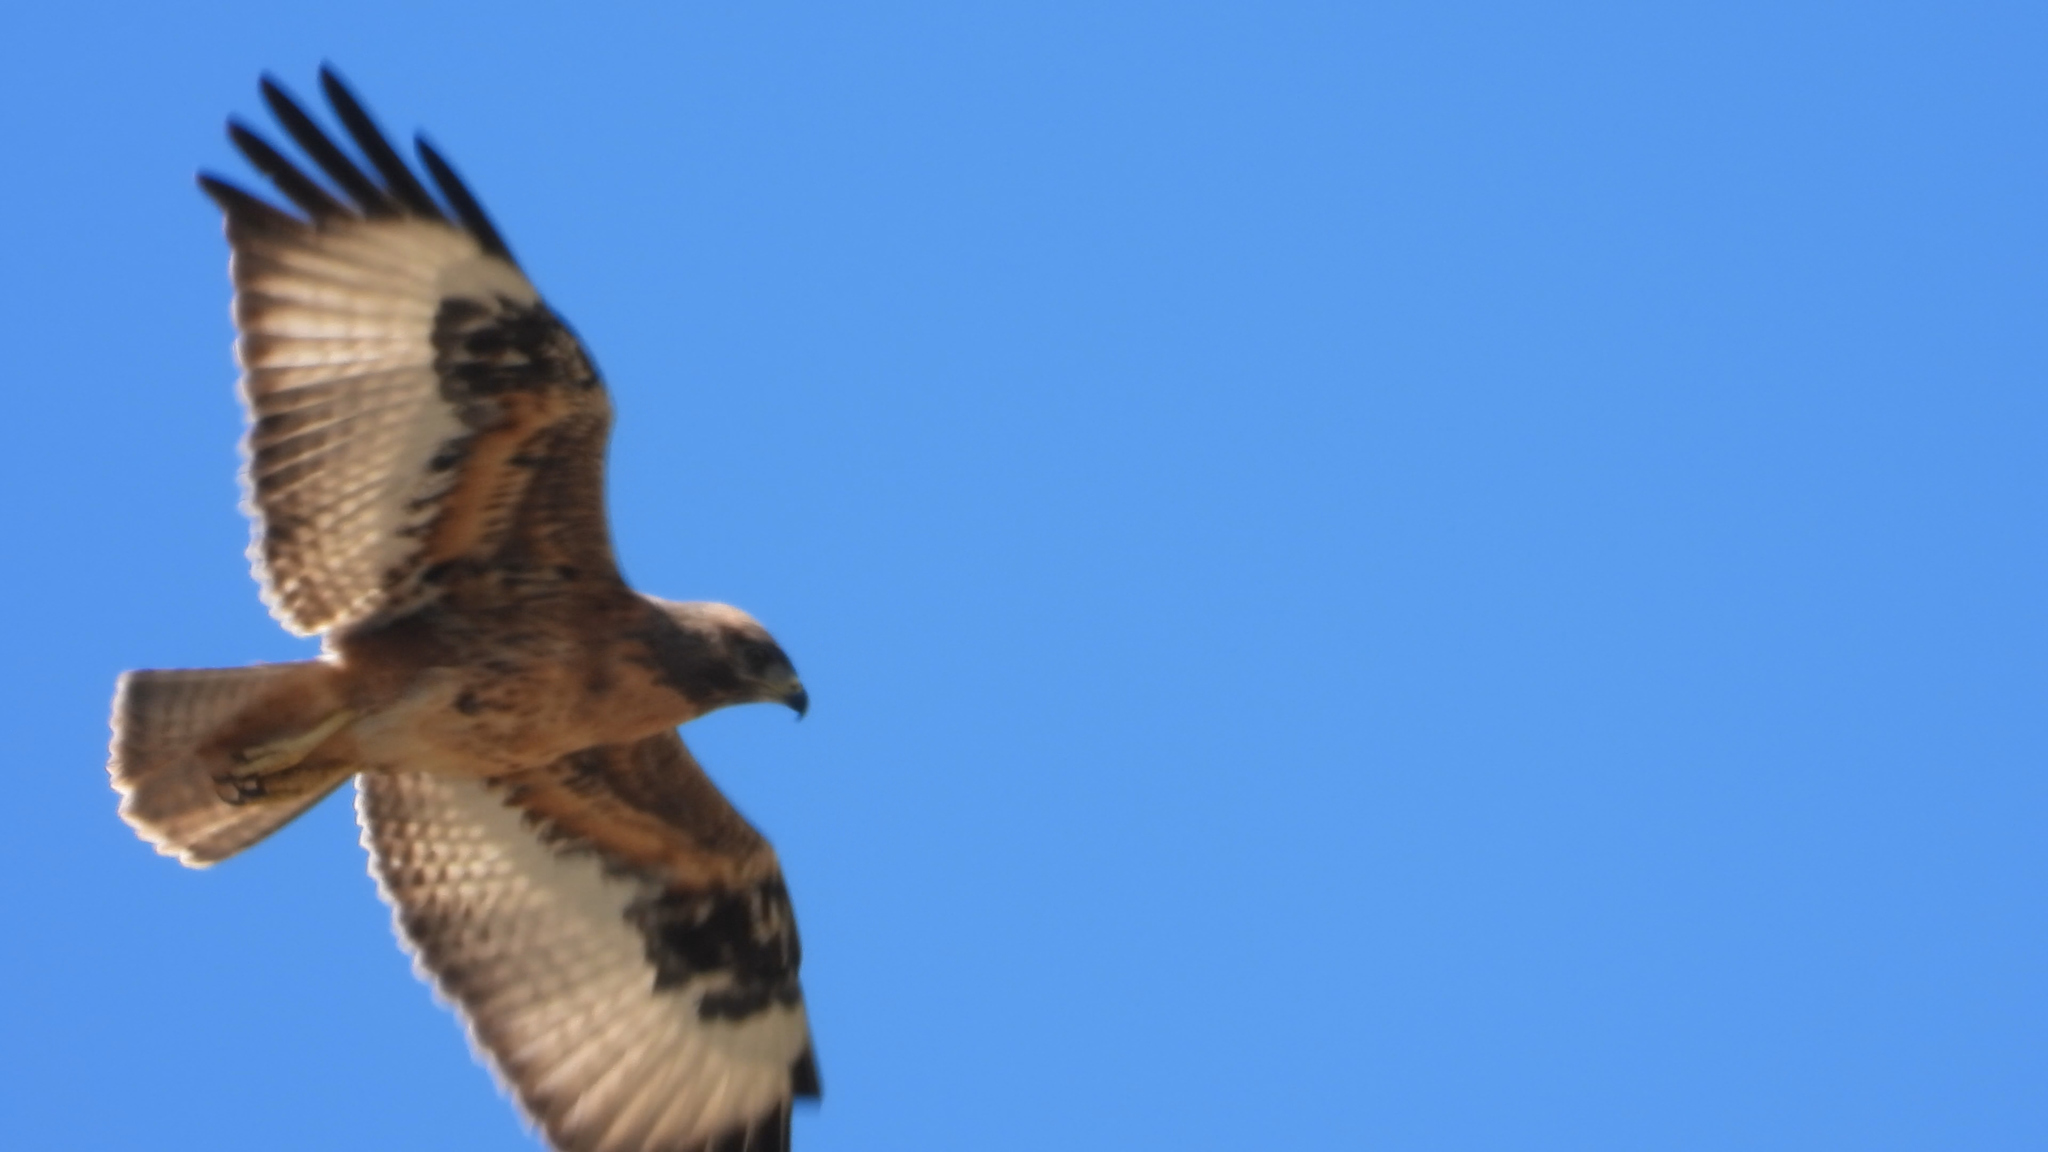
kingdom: Animalia
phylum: Chordata
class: Aves
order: Accipitriformes
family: Accipitridae
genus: Buteo
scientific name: Buteo rufofuscus
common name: Jackal buzzard
